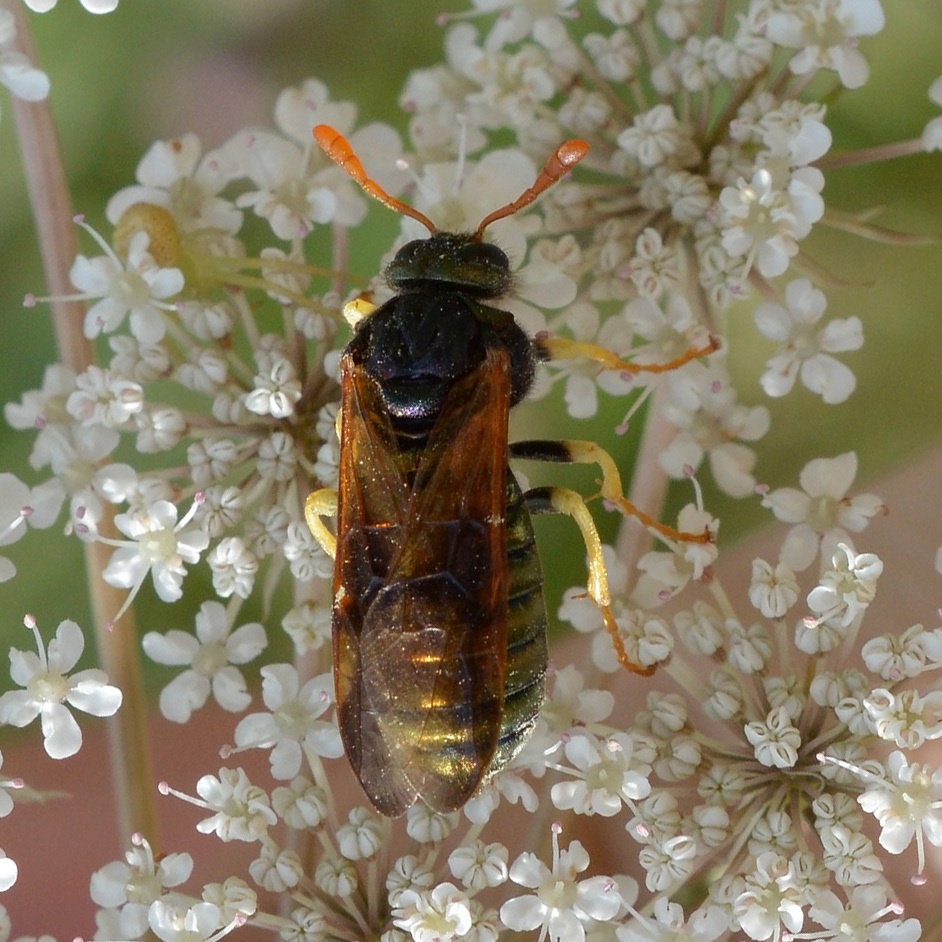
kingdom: Animalia
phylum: Arthropoda
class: Insecta
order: Hymenoptera
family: Cimbicidae
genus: Abia
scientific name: Abia nitens
